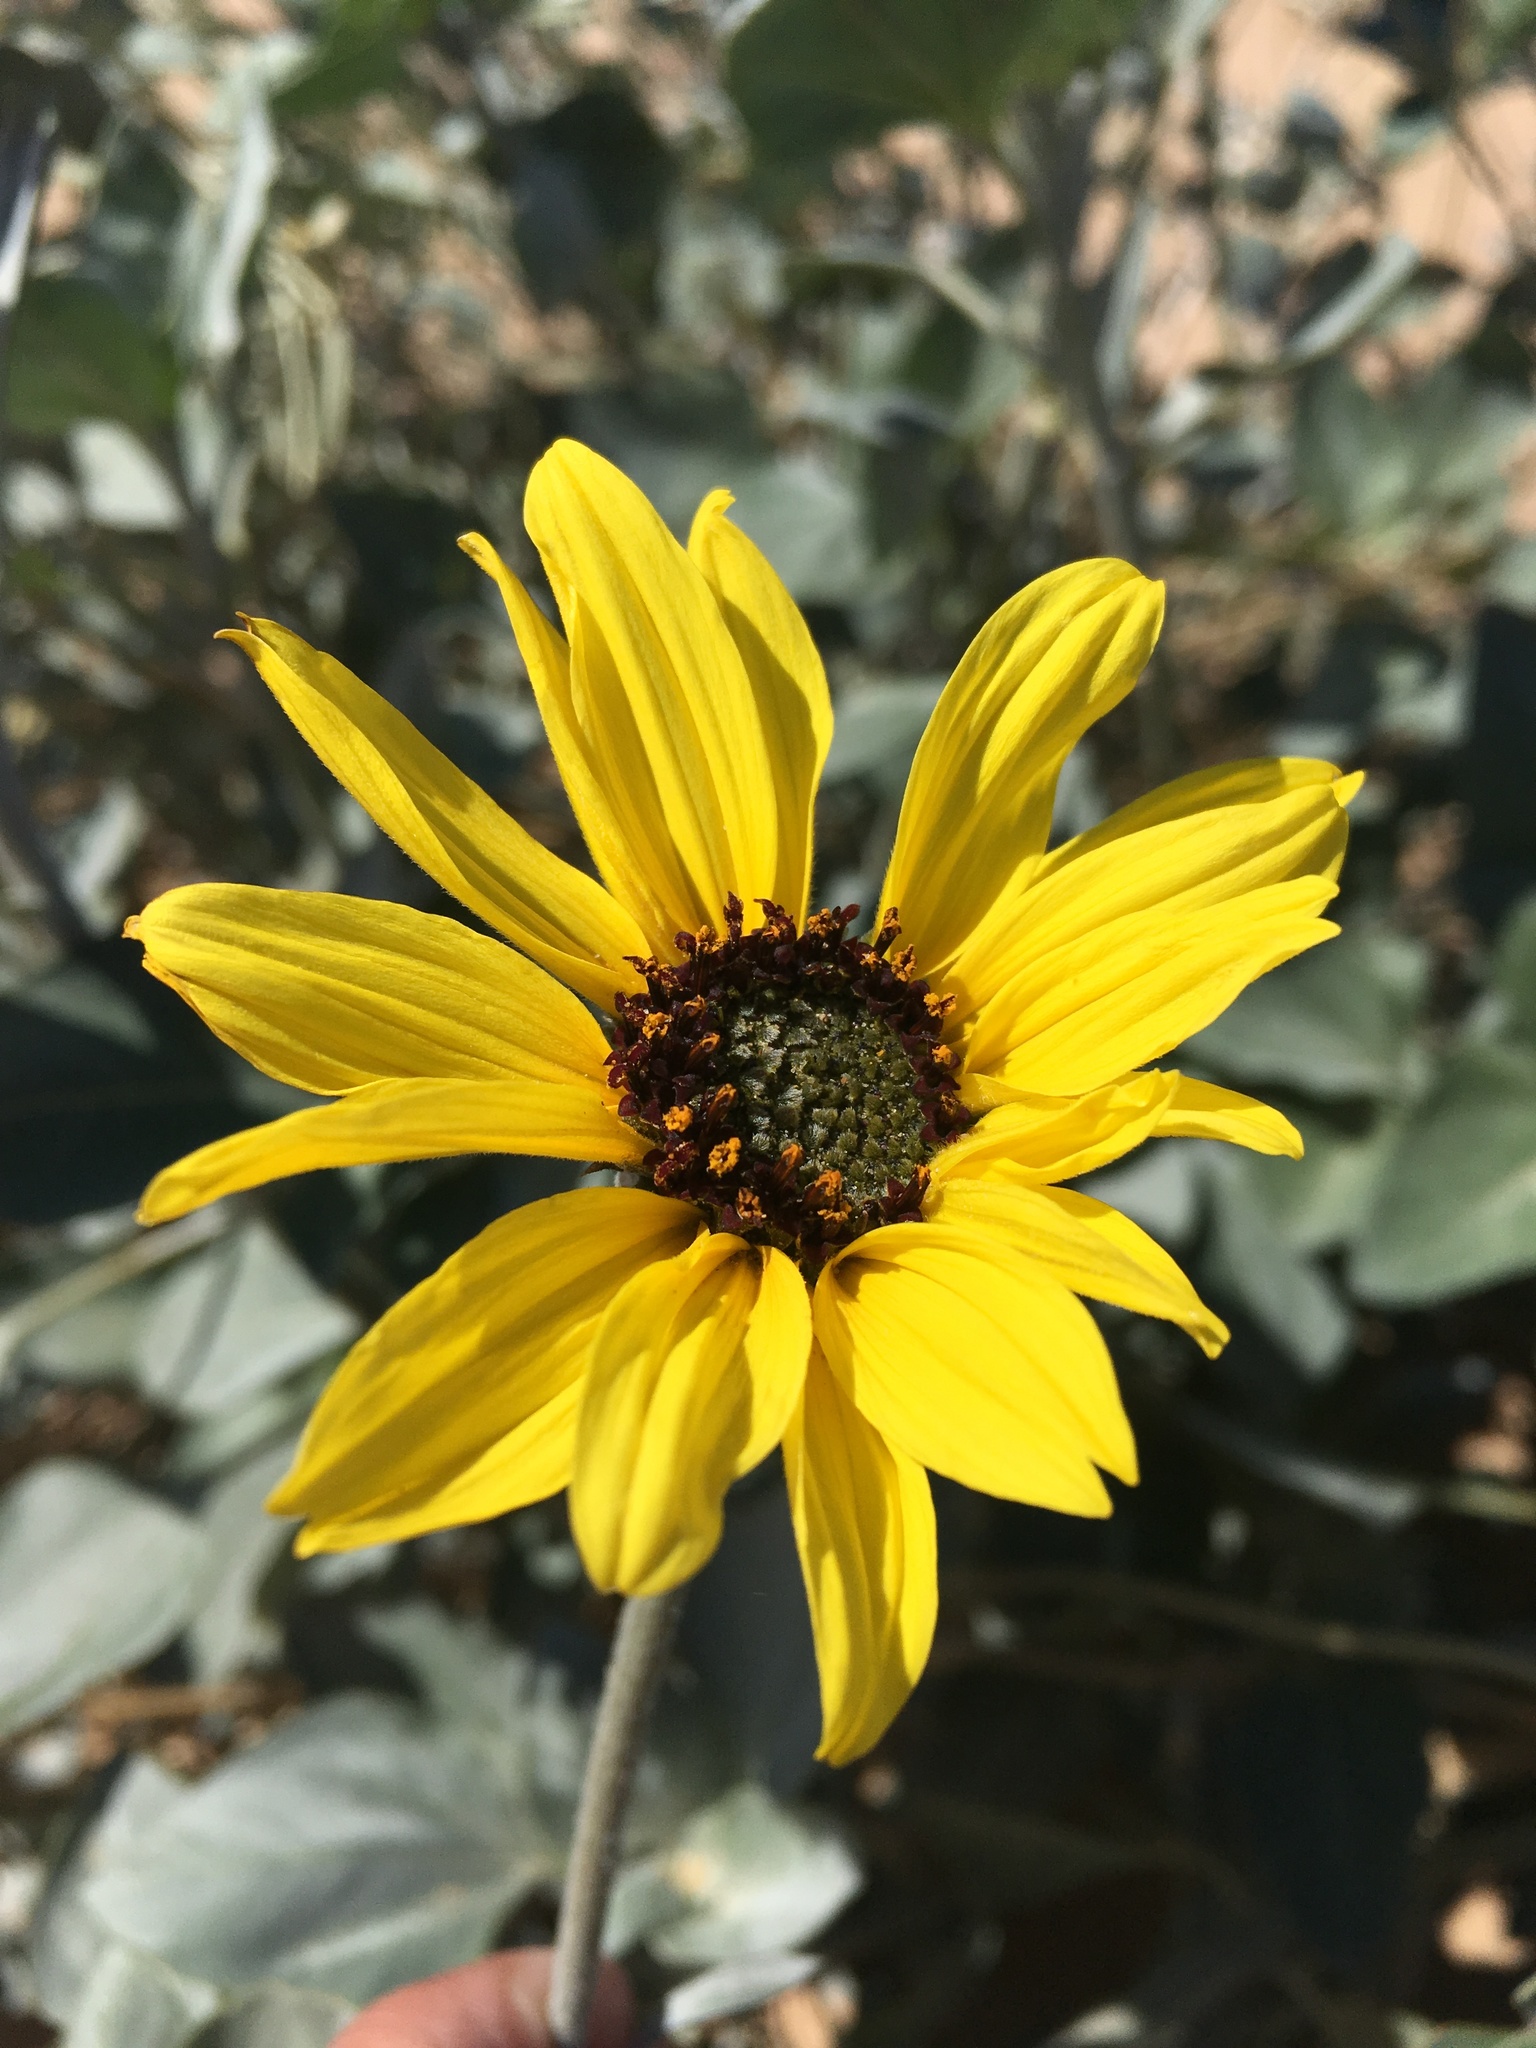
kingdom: Plantae
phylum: Tracheophyta
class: Magnoliopsida
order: Asterales
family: Asteraceae
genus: Helianthus
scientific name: Helianthus niveus
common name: Snowy sunflower
